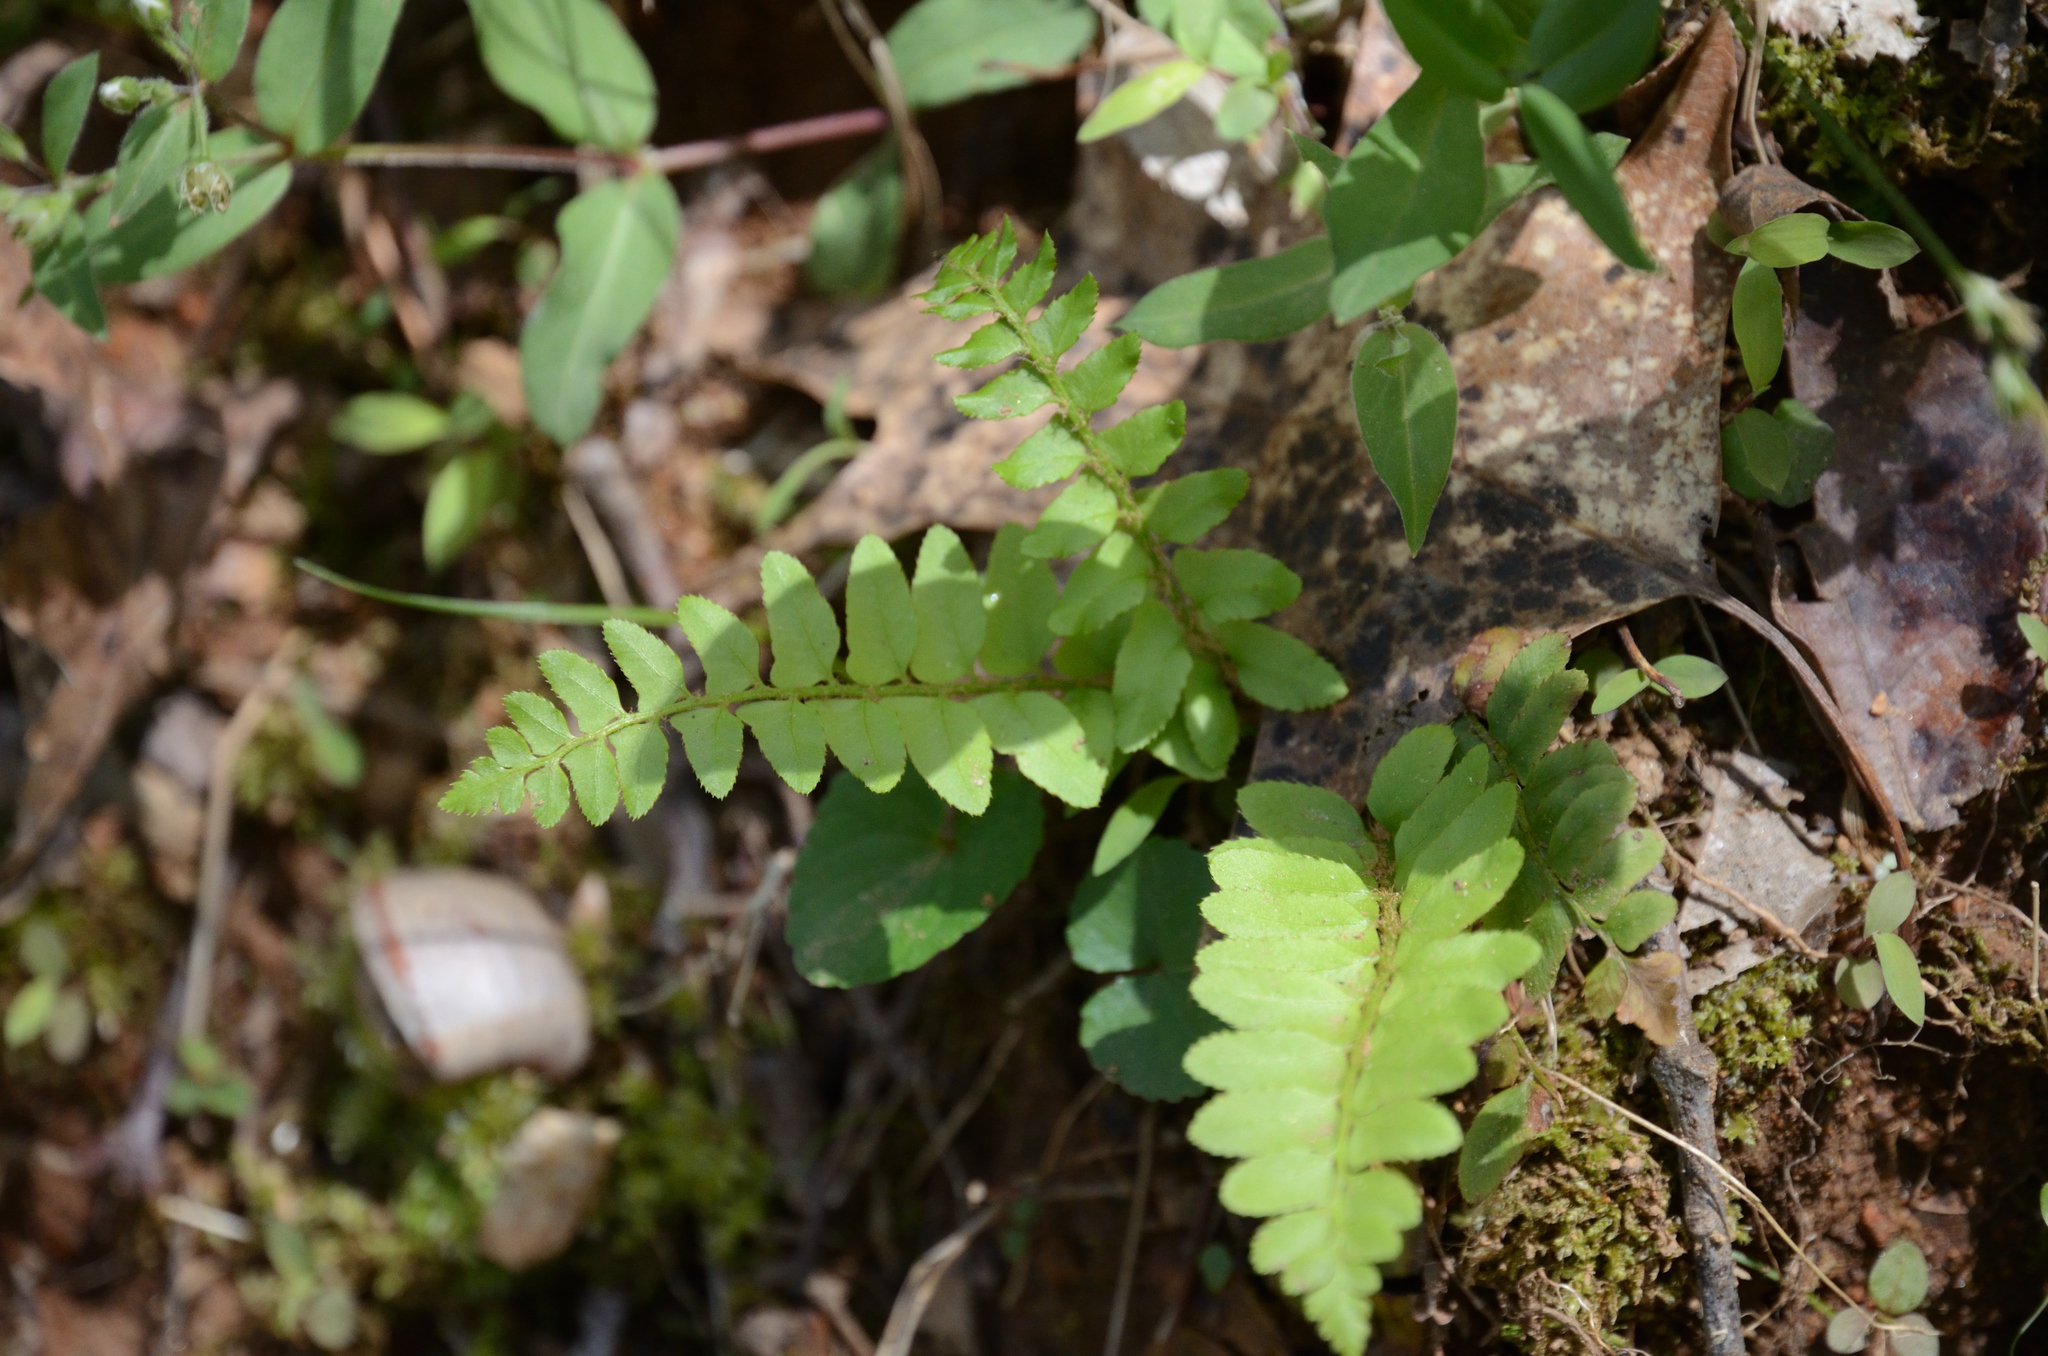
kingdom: Plantae
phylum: Tracheophyta
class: Polypodiopsida
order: Polypodiales
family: Dryopteridaceae
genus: Polystichum
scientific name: Polystichum acrostichoides
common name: Christmas fern
